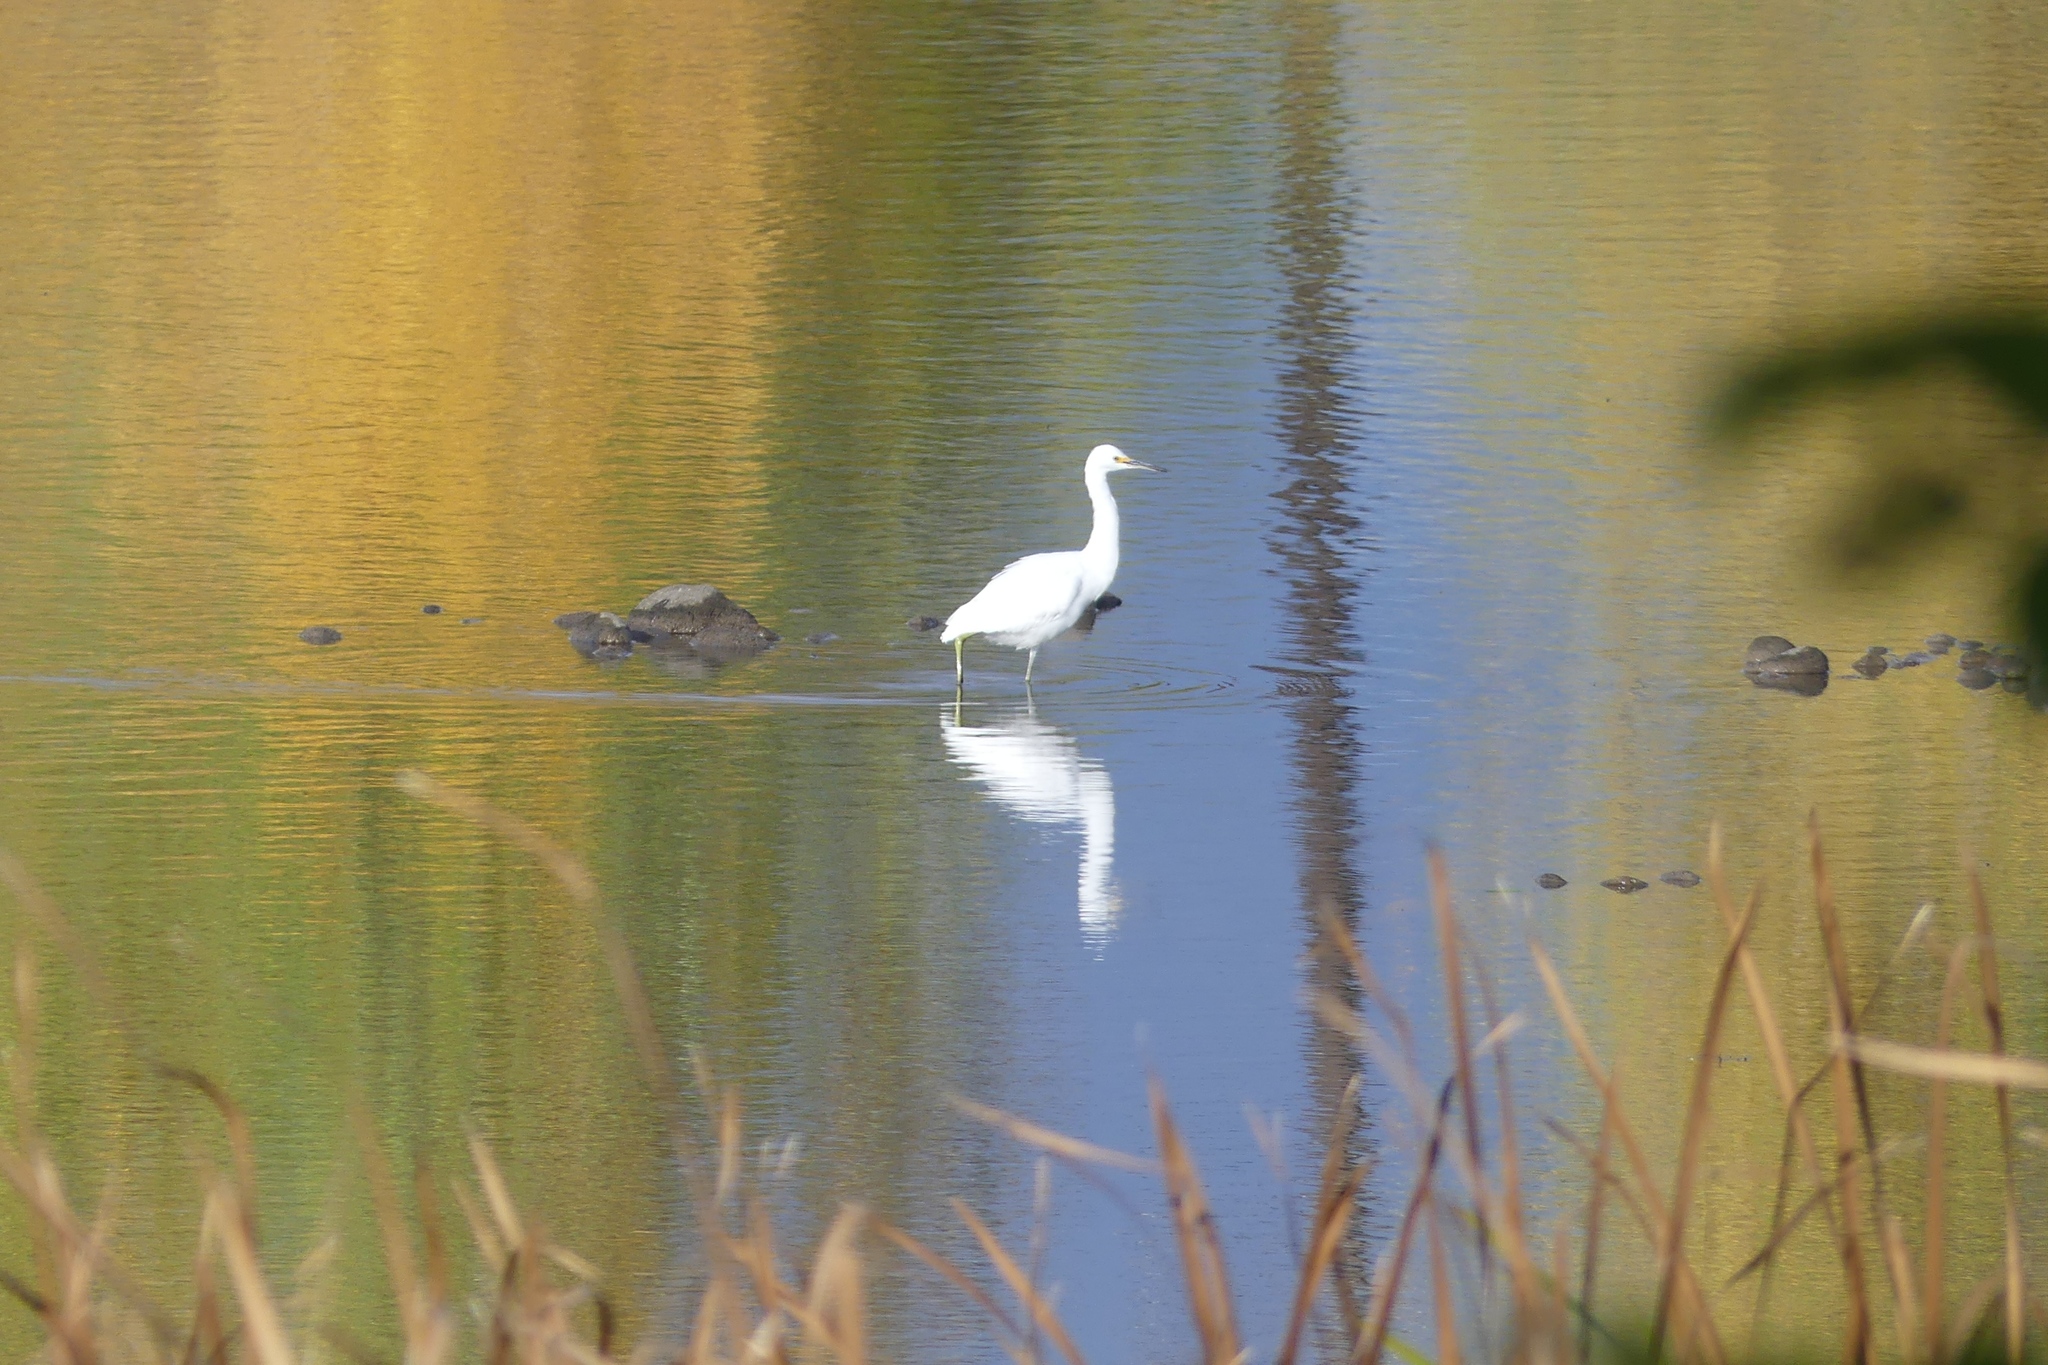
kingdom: Animalia
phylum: Chordata
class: Aves
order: Pelecaniformes
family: Ardeidae
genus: Egretta
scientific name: Egretta thula
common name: Snowy egret
